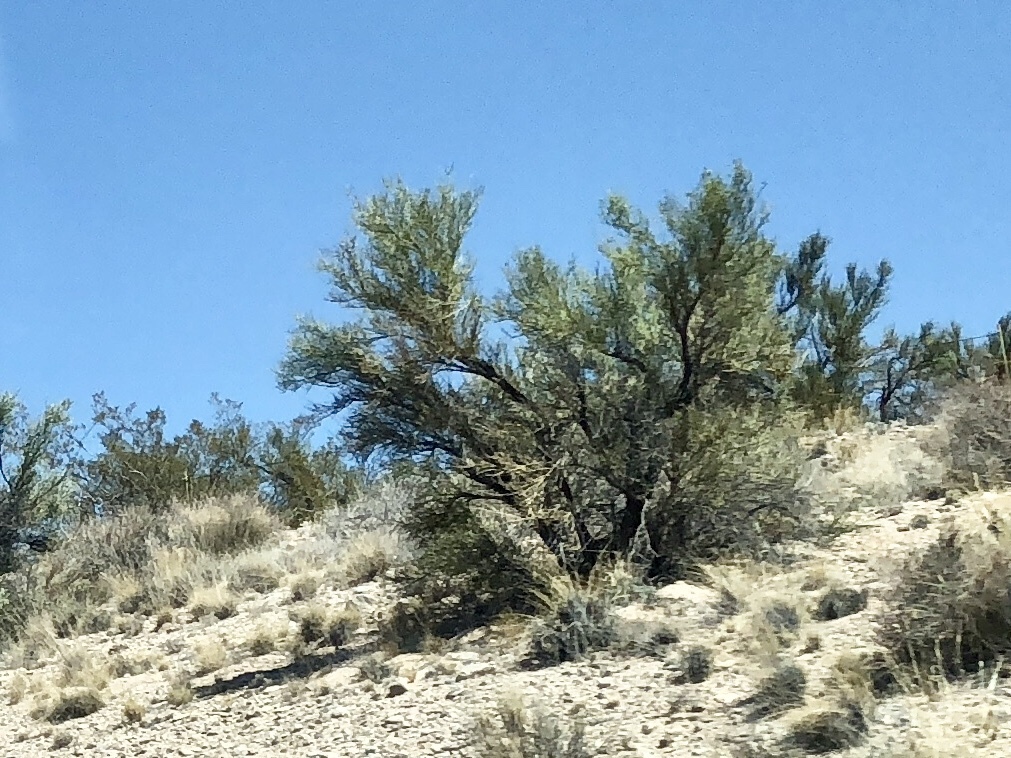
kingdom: Plantae
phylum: Tracheophyta
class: Magnoliopsida
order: Celastrales
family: Celastraceae
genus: Canotia
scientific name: Canotia holacantha
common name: Crucifixion thorns
